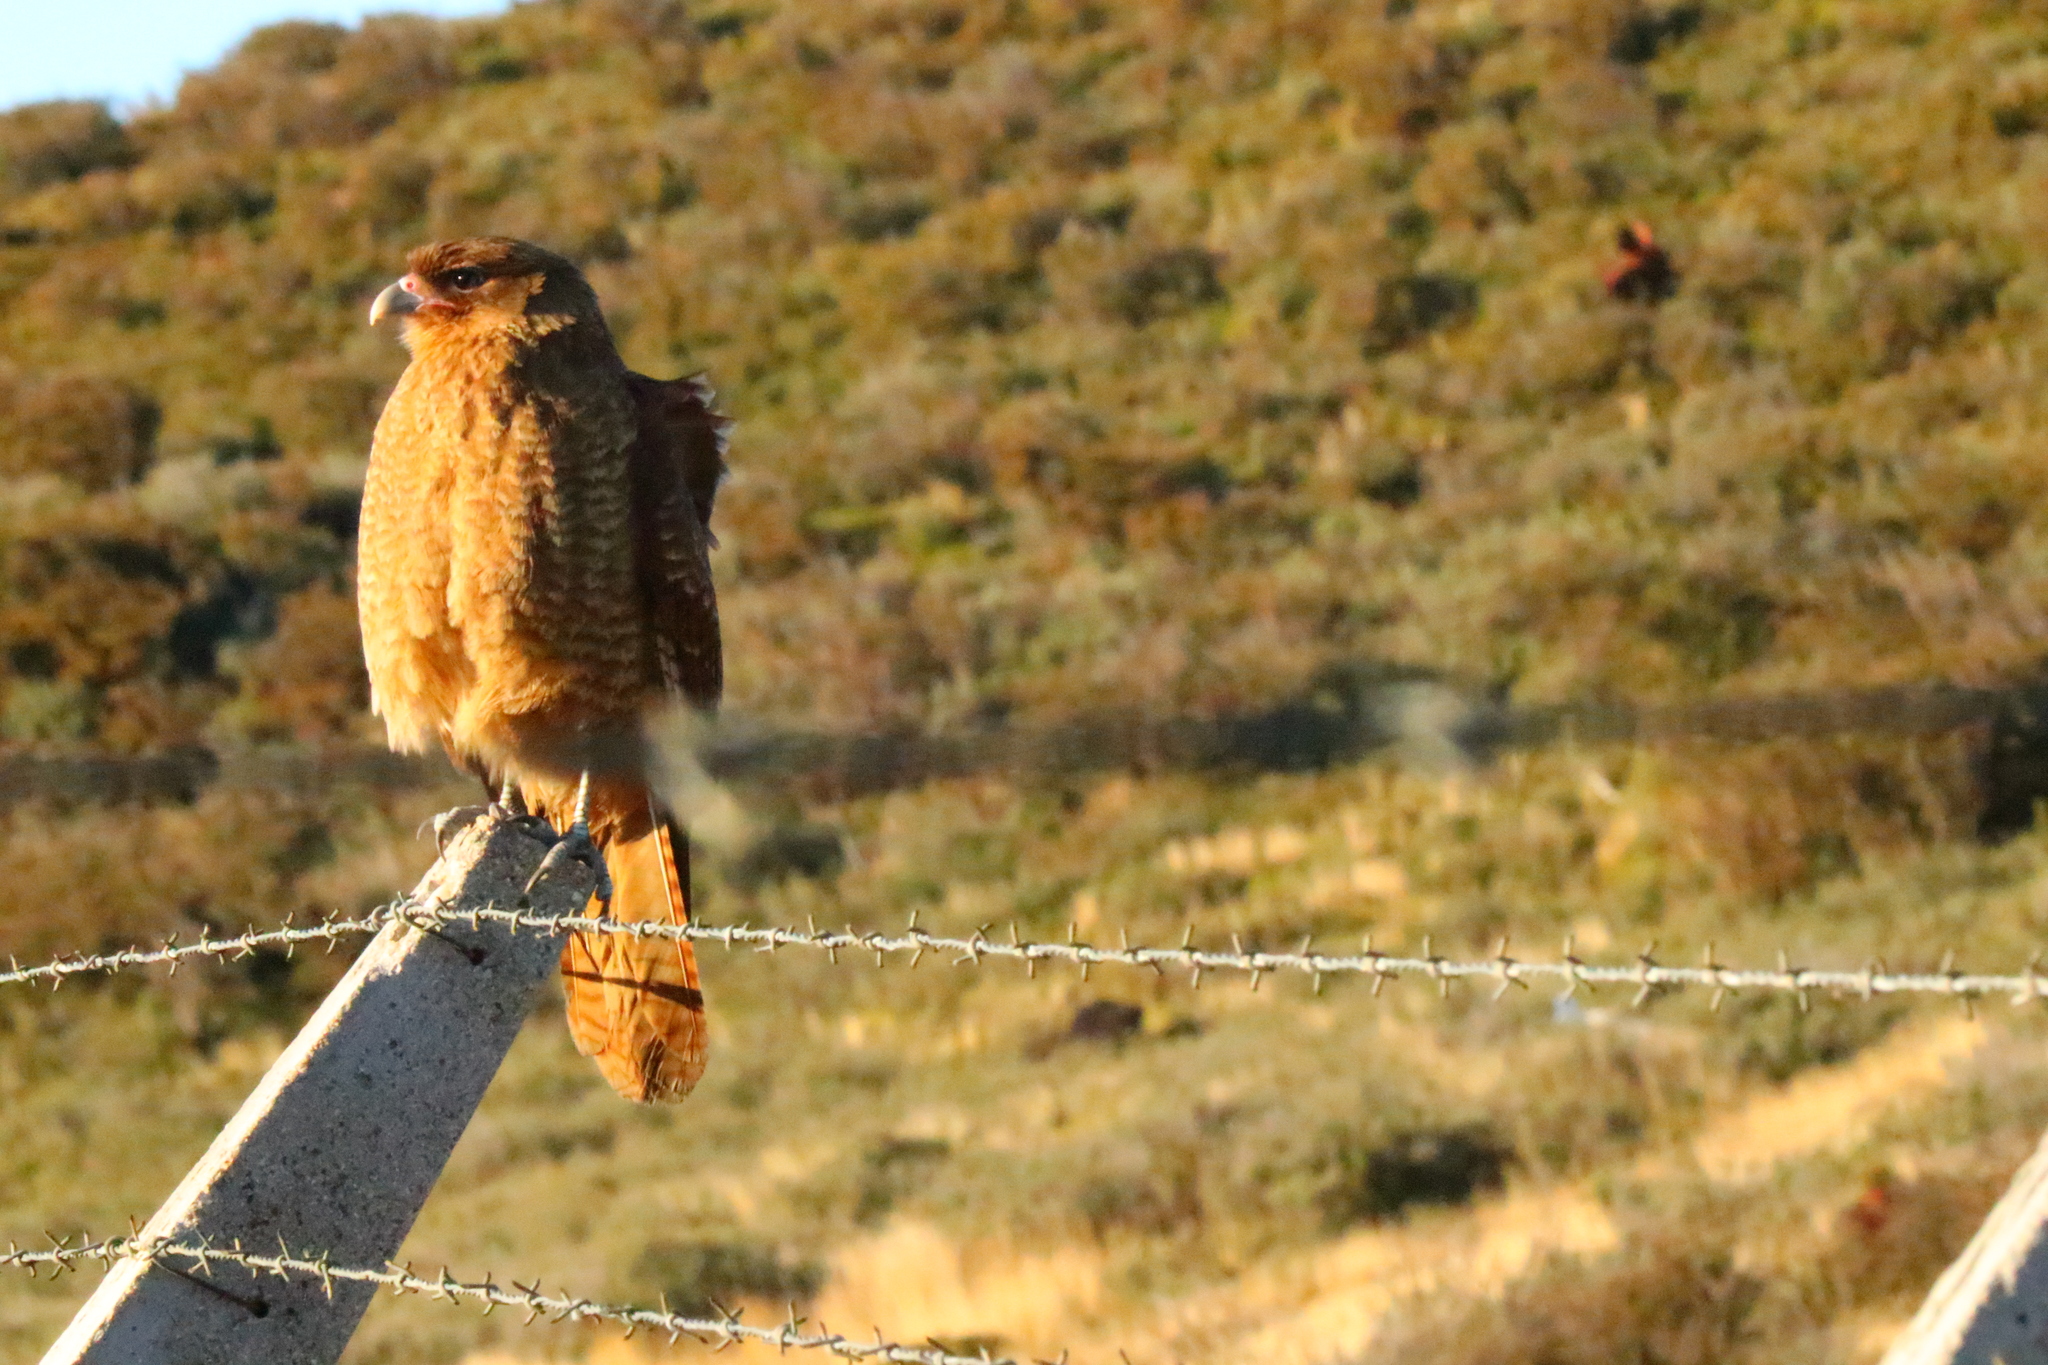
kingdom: Animalia
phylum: Chordata
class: Aves
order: Falconiformes
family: Falconidae
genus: Daptrius
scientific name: Daptrius
